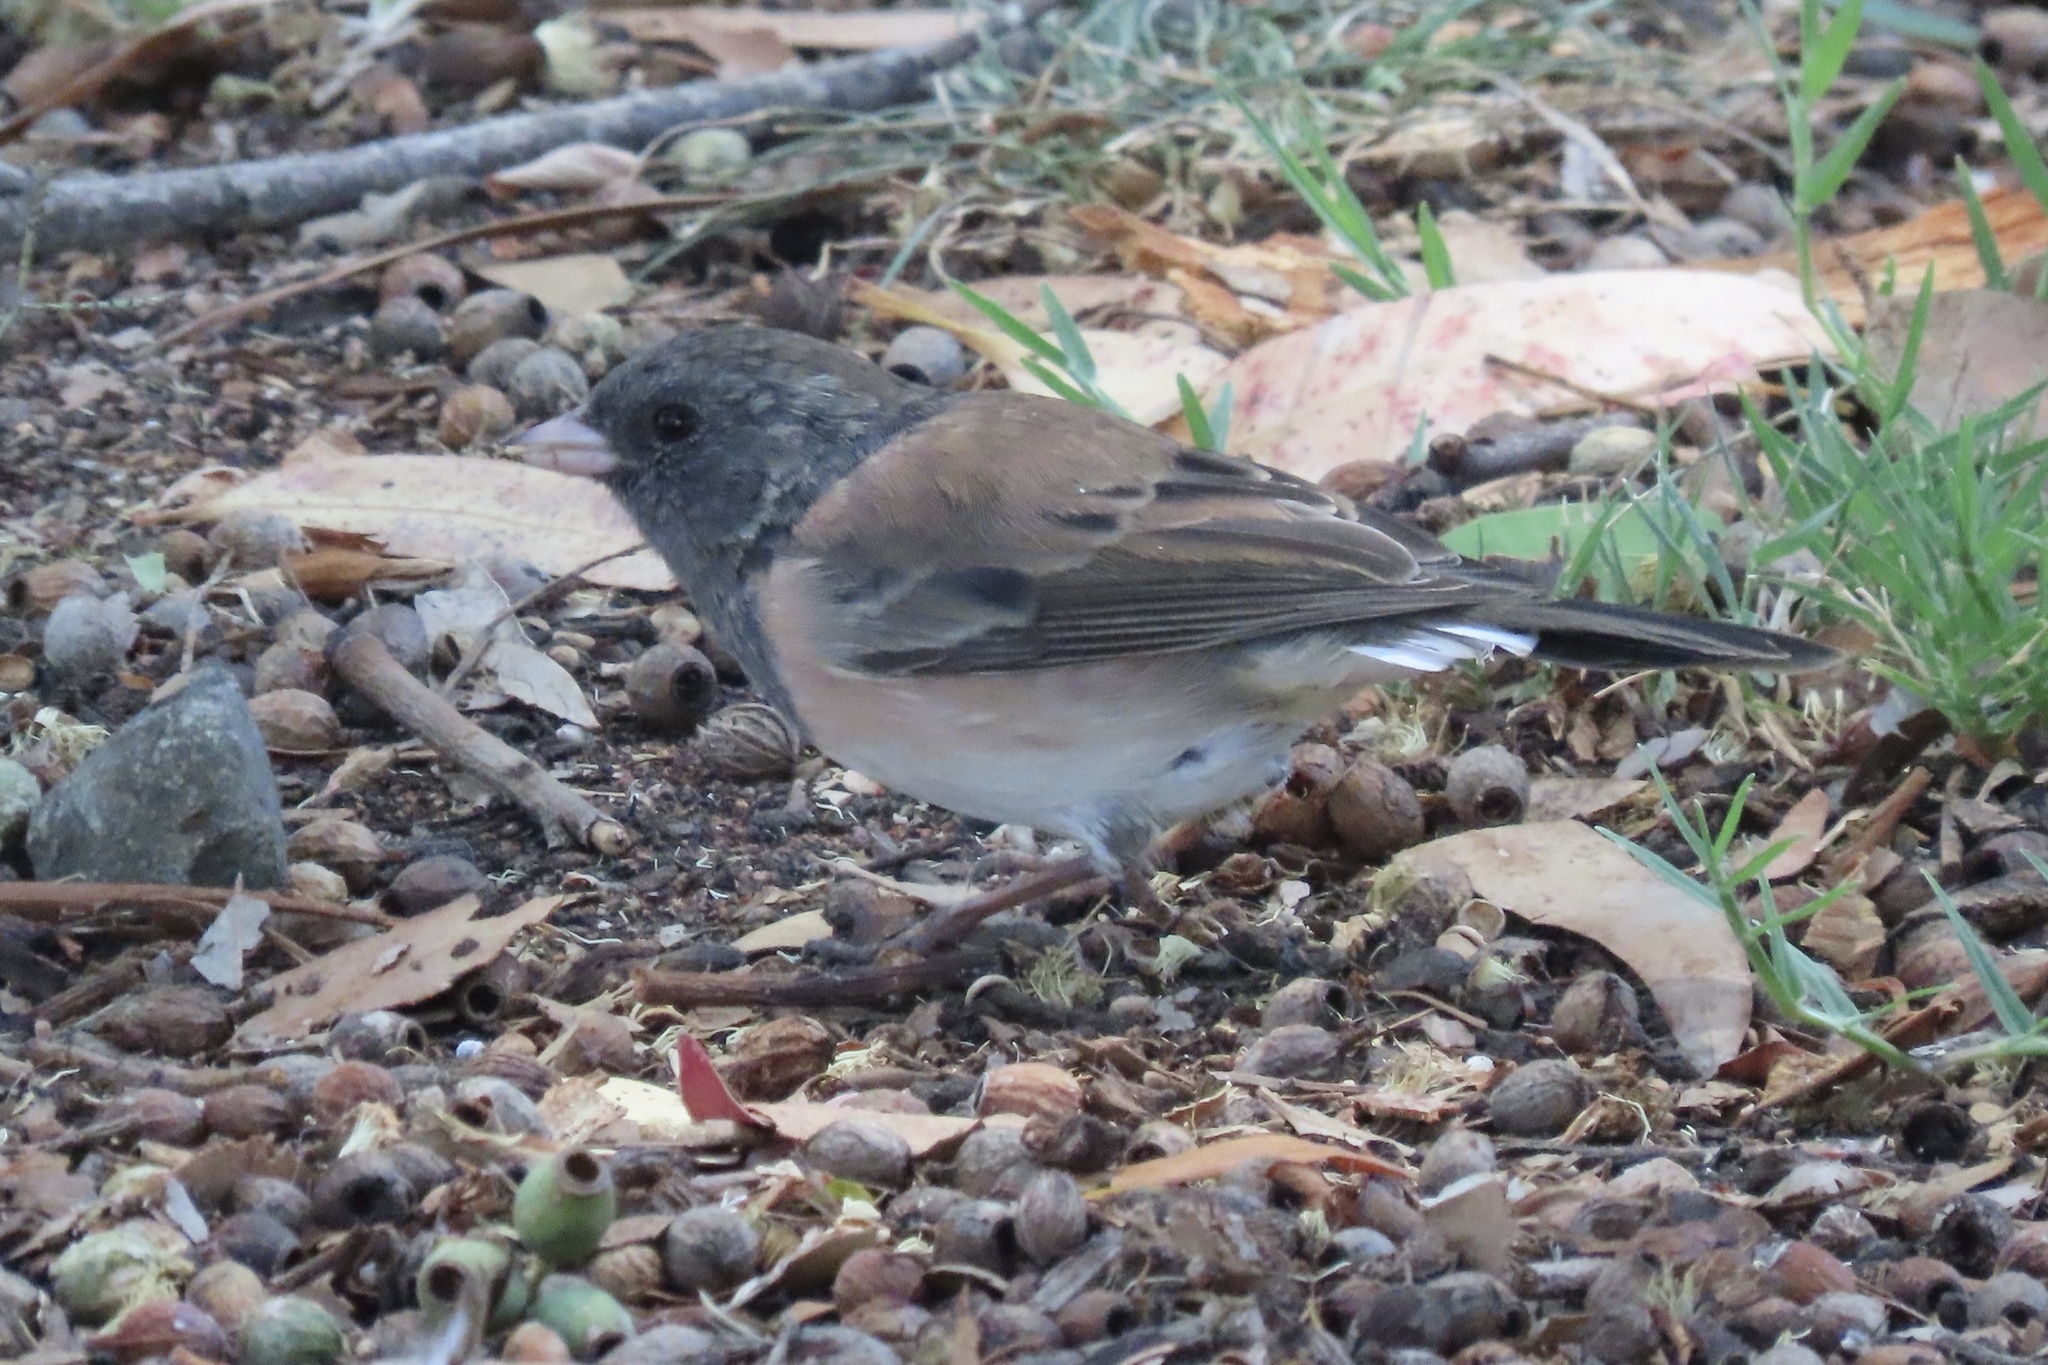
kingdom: Animalia
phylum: Chordata
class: Aves
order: Passeriformes
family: Passerellidae
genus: Junco
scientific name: Junco hyemalis
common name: Dark-eyed junco
